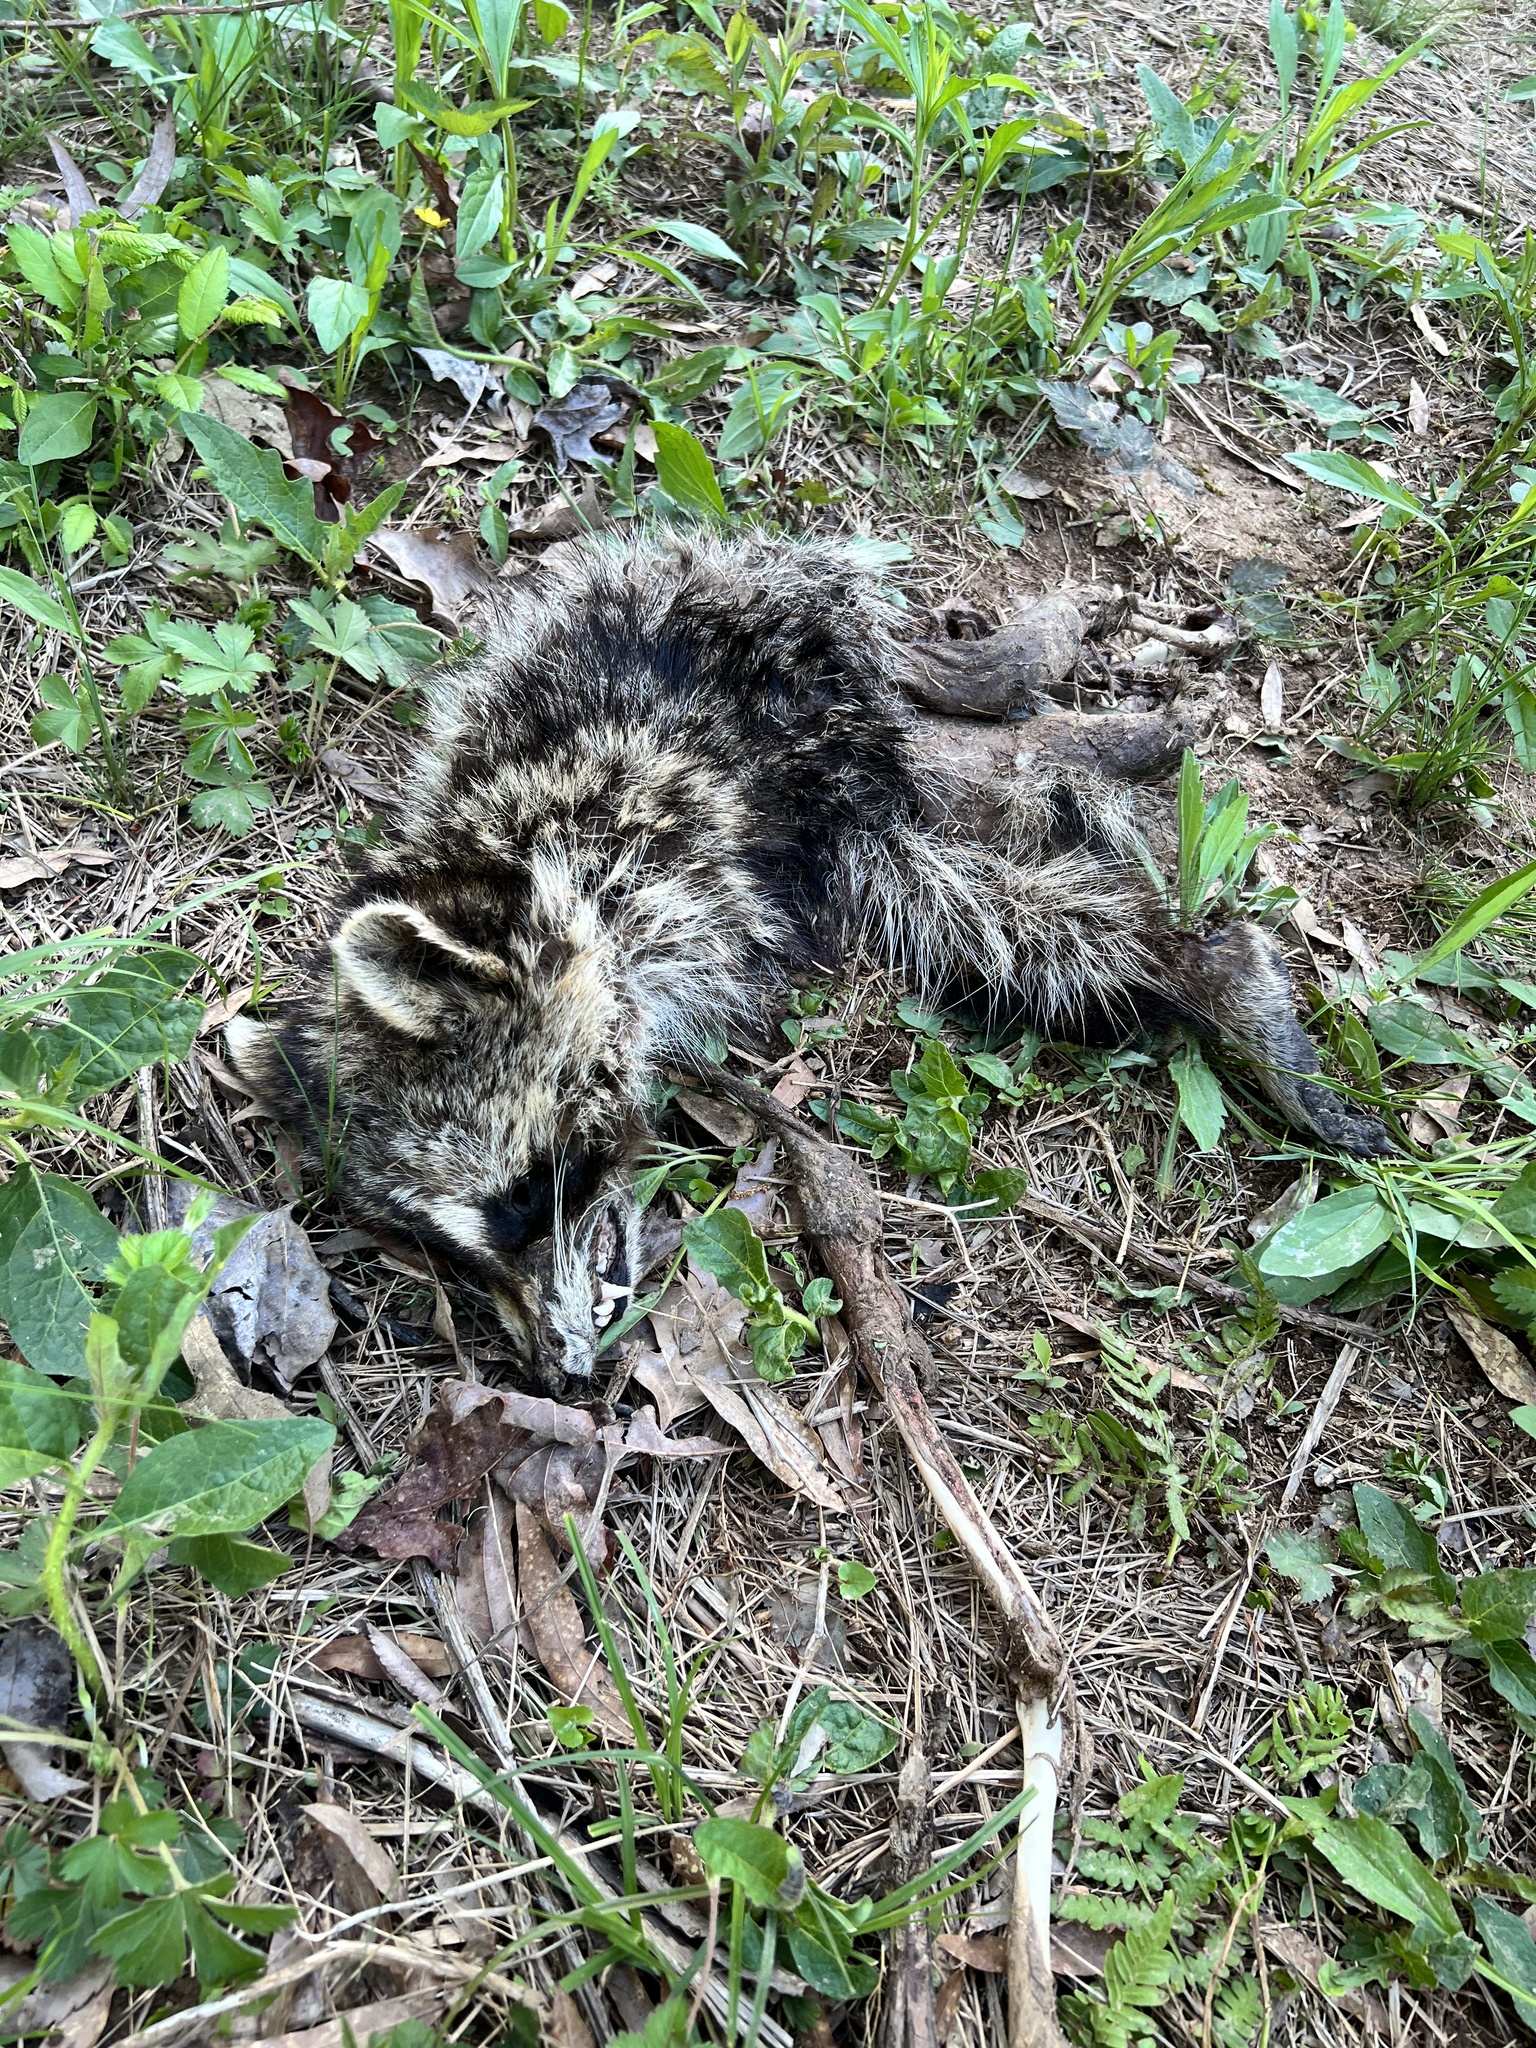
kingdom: Animalia
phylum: Chordata
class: Mammalia
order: Carnivora
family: Procyonidae
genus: Procyon
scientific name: Procyon lotor
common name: Raccoon
